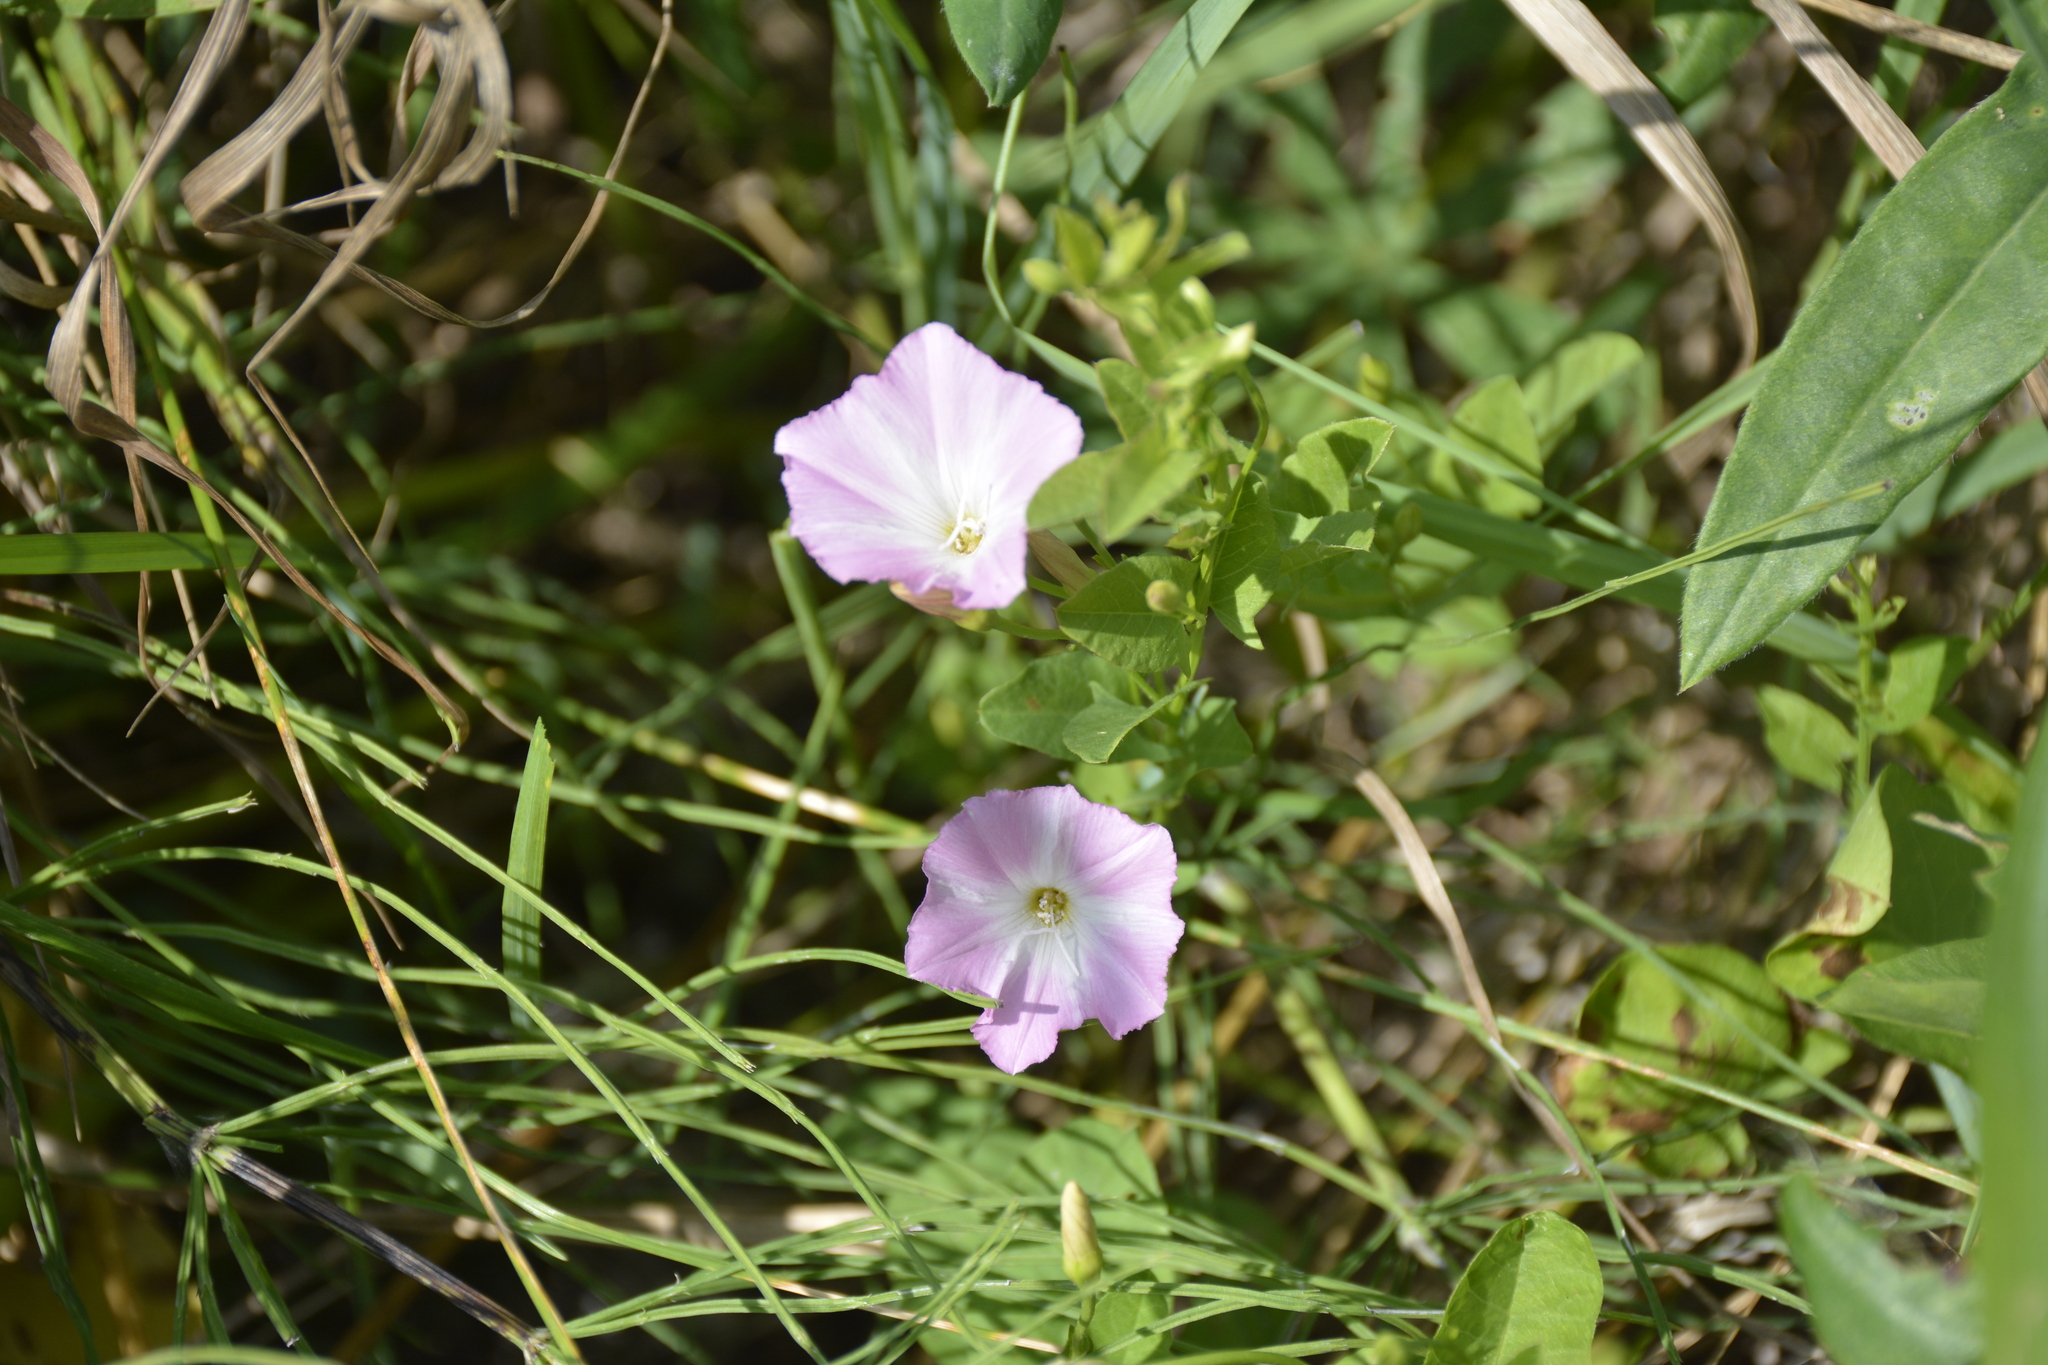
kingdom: Plantae
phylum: Tracheophyta
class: Magnoliopsida
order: Solanales
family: Convolvulaceae
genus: Convolvulus
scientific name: Convolvulus arvensis
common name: Field bindweed
